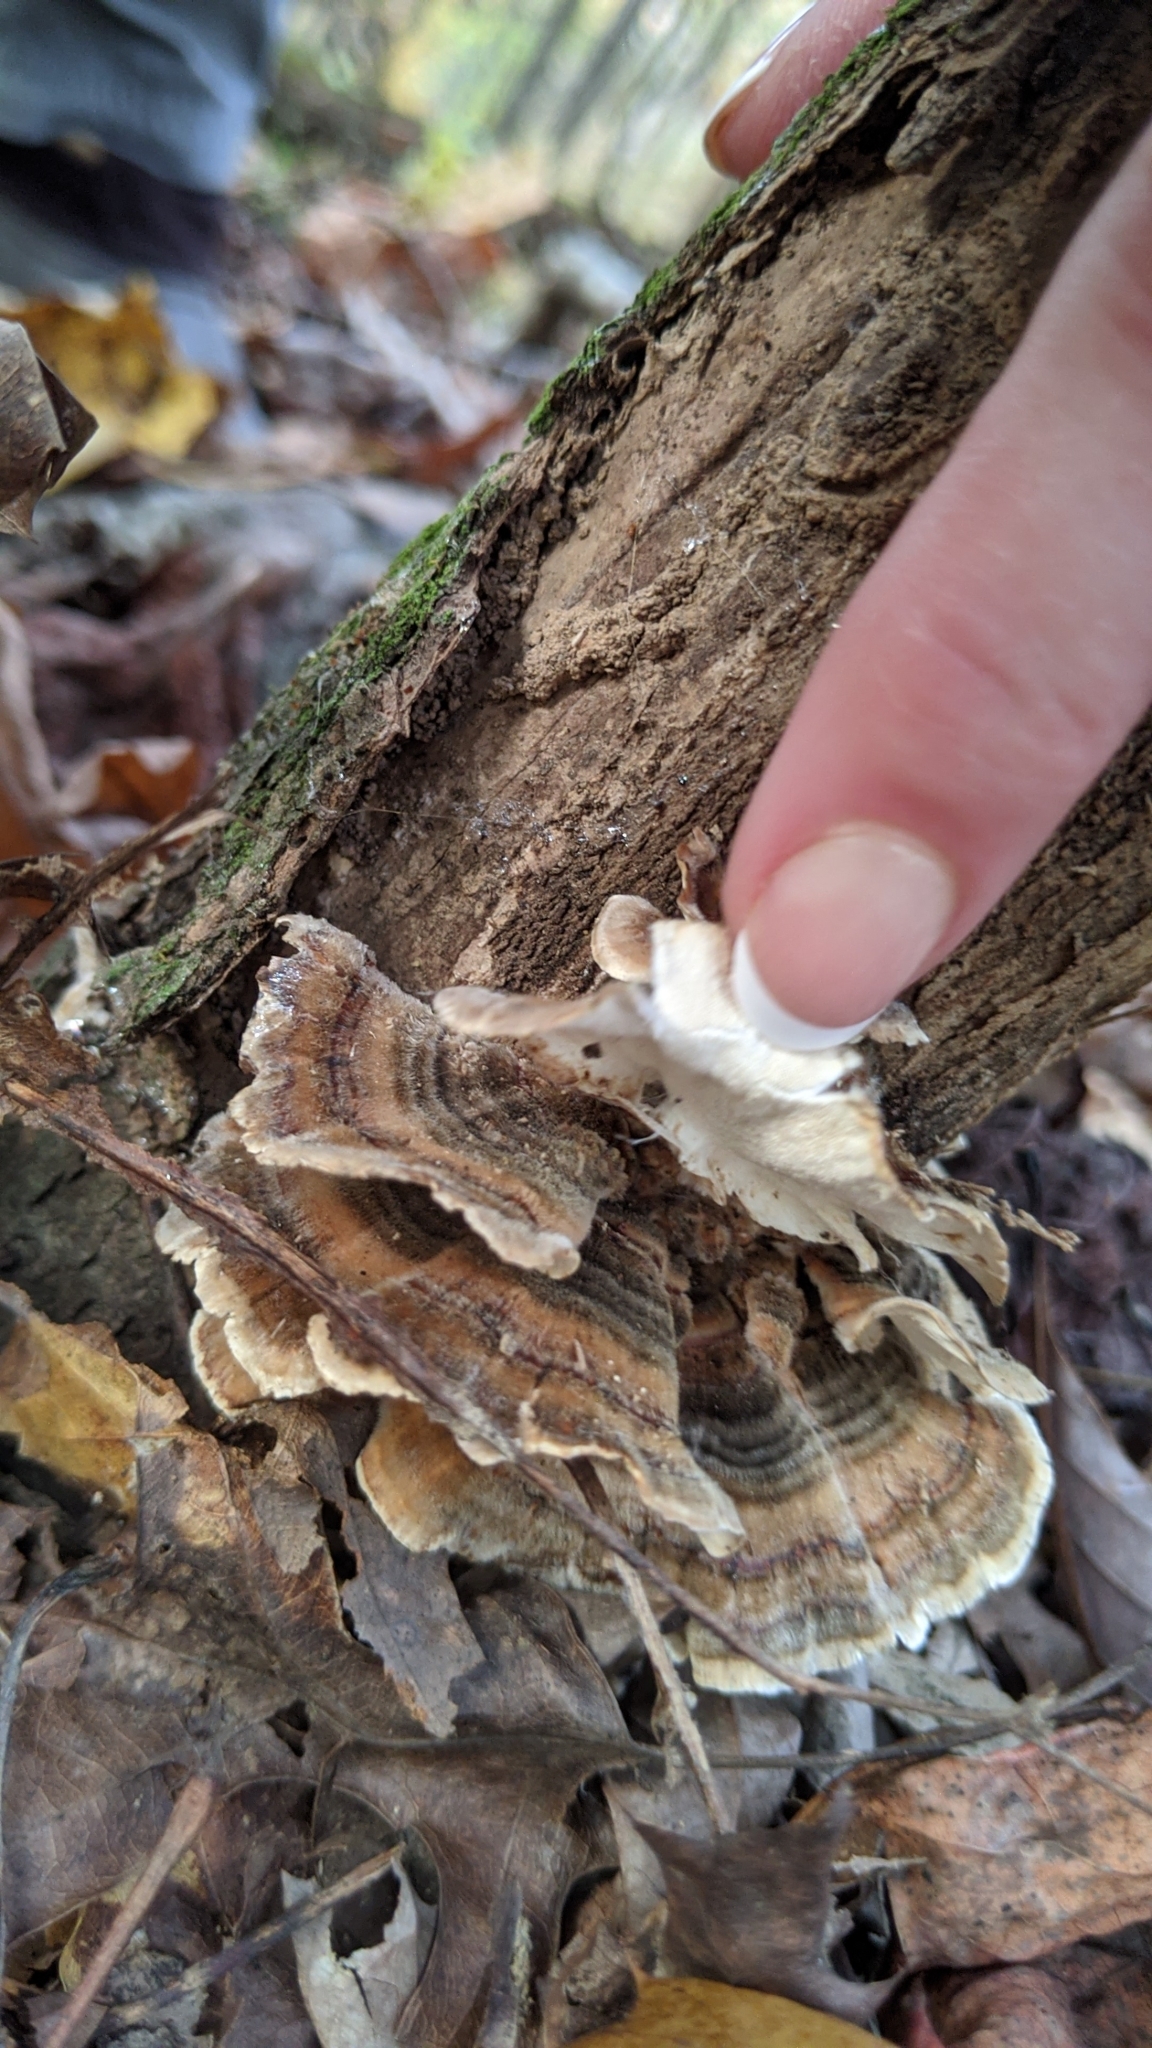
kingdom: Fungi
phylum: Basidiomycota
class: Agaricomycetes
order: Polyporales
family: Polyporaceae
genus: Trametes
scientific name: Trametes versicolor
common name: Turkeytail
